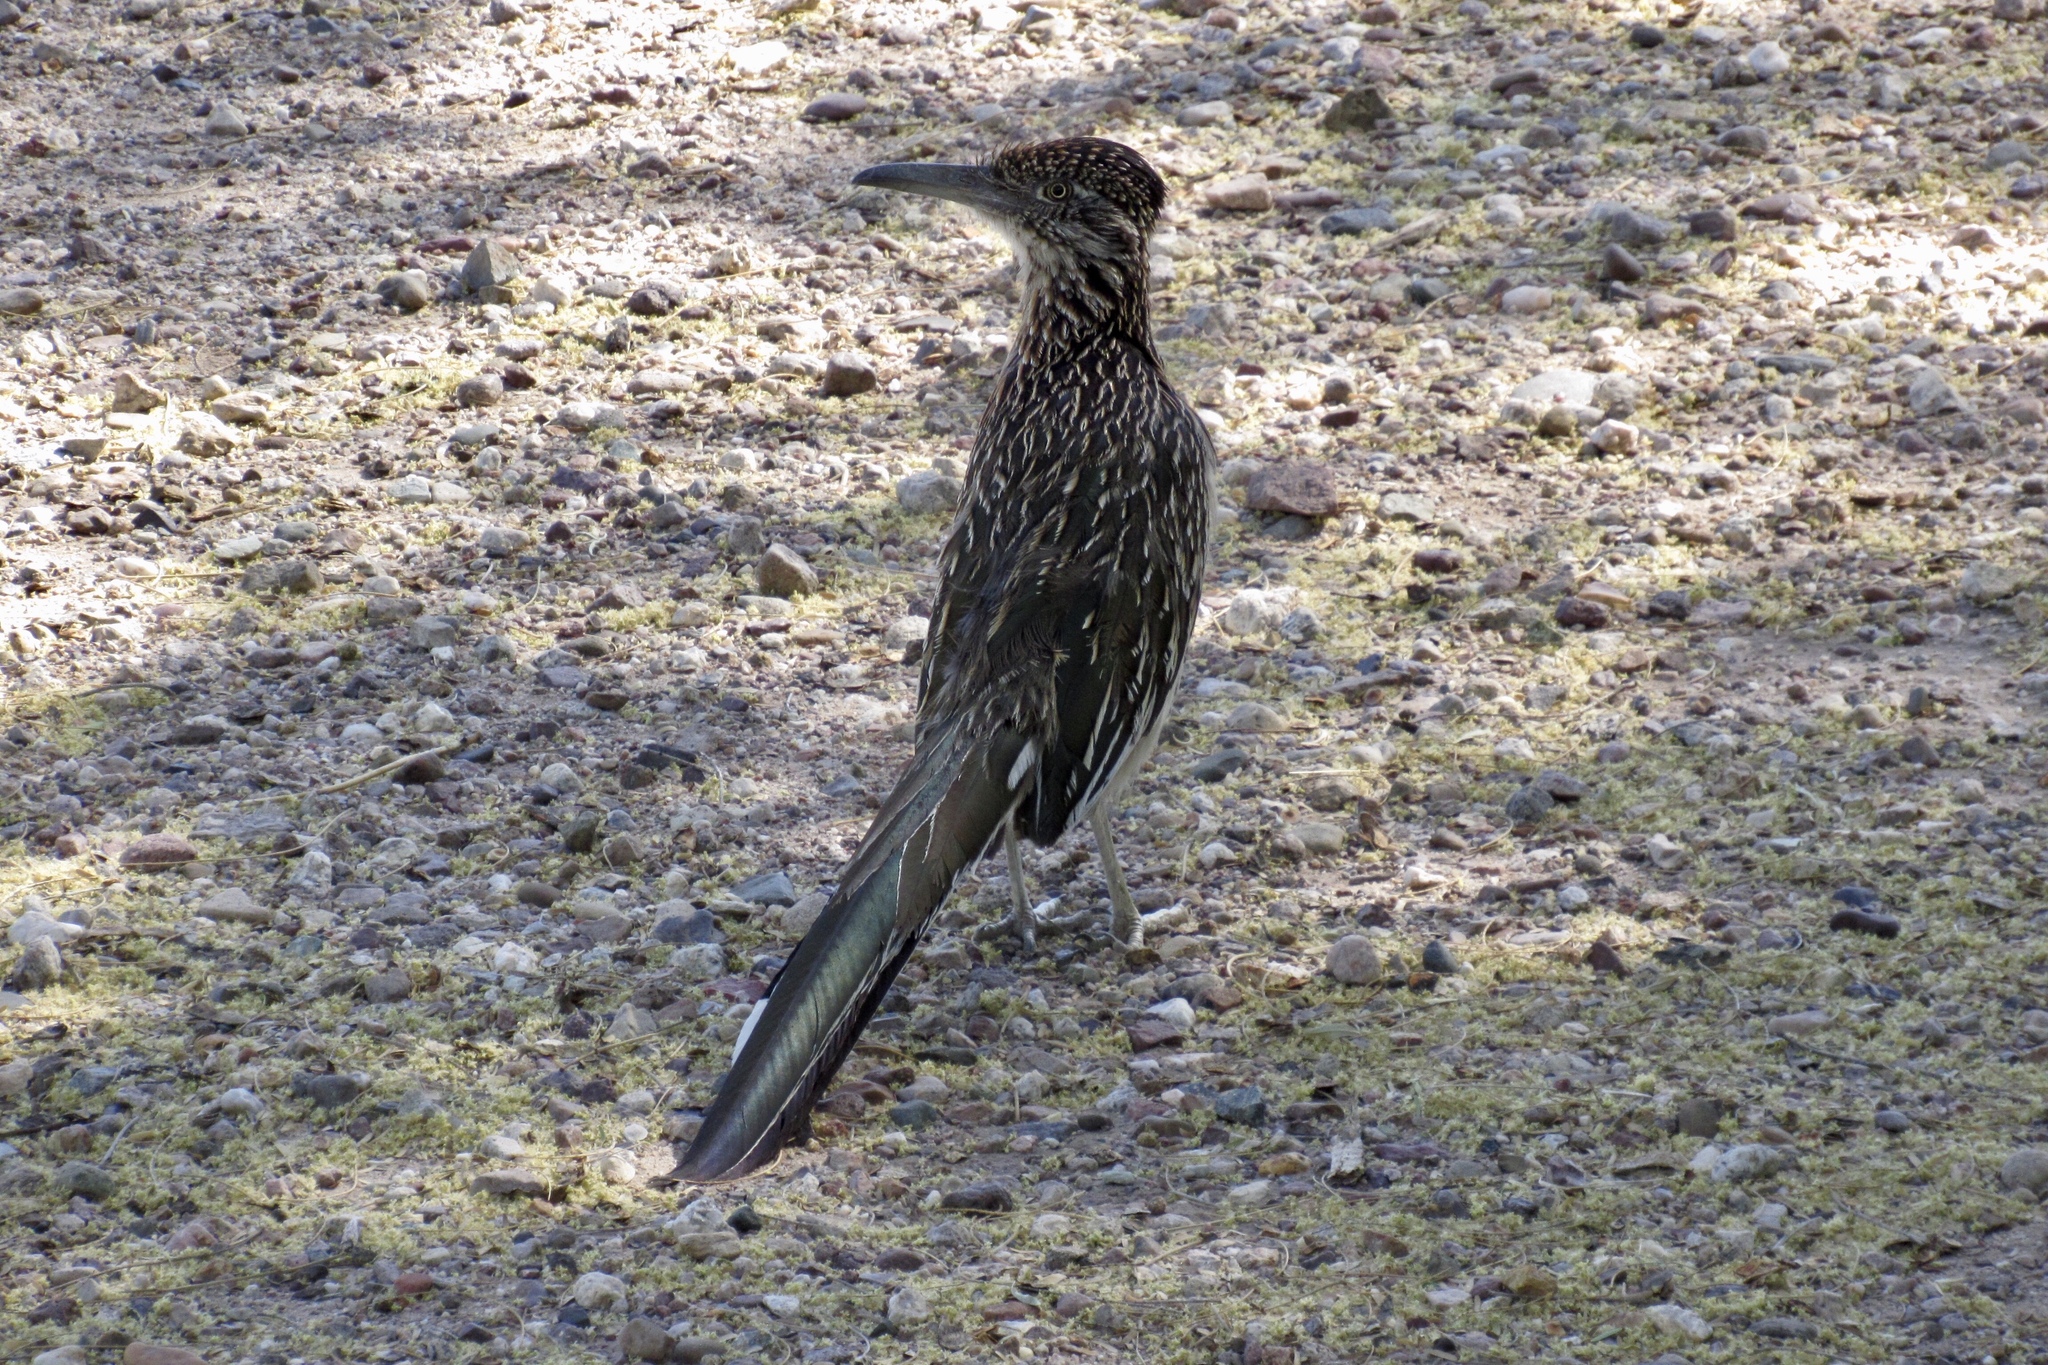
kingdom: Animalia
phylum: Chordata
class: Aves
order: Cuculiformes
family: Cuculidae
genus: Geococcyx
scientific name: Geococcyx californianus
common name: Greater roadrunner
